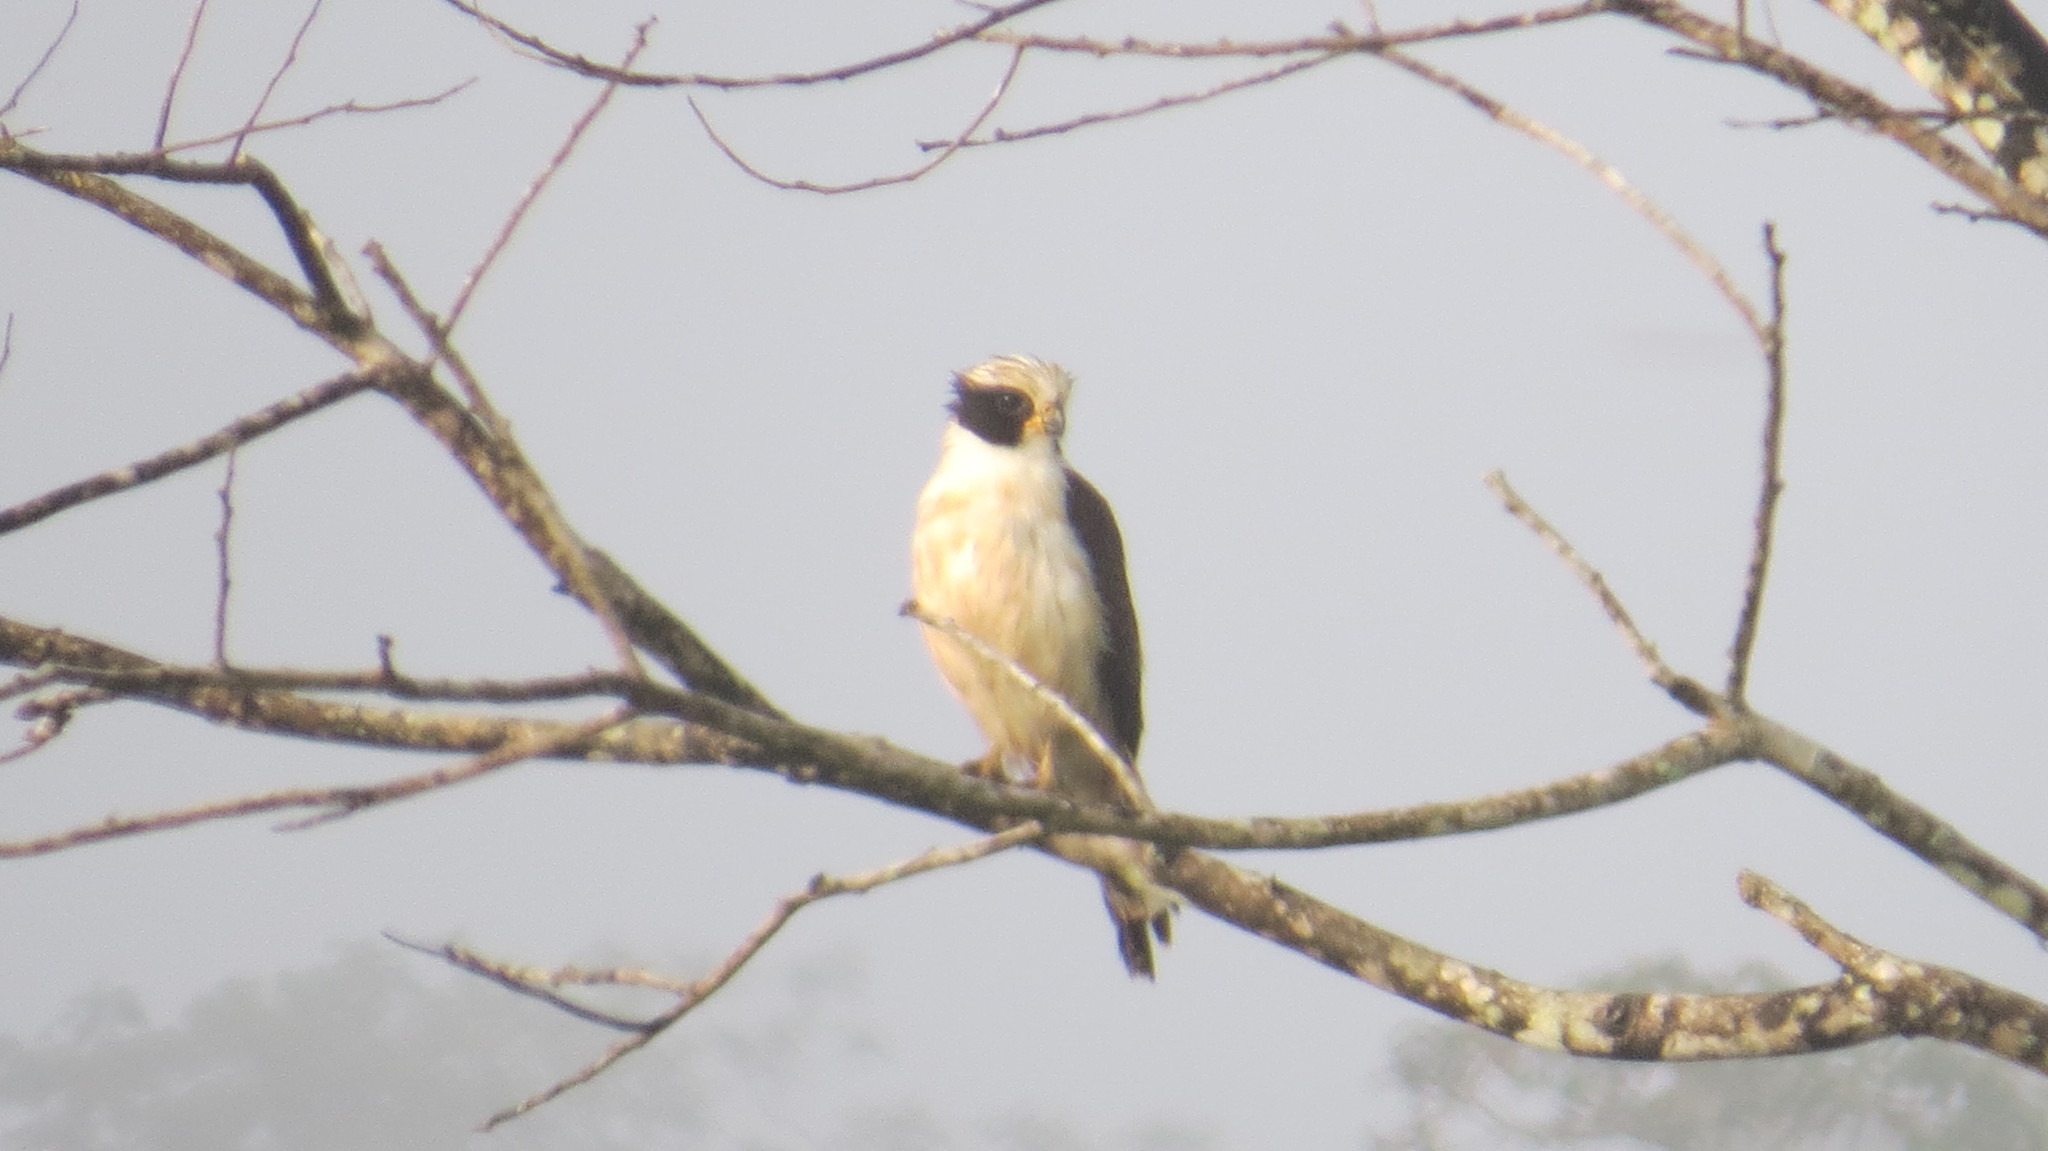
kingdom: Animalia
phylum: Chordata
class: Aves
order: Falconiformes
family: Falconidae
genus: Herpetotheres
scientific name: Herpetotheres cachinnans
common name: Laughing falcon
